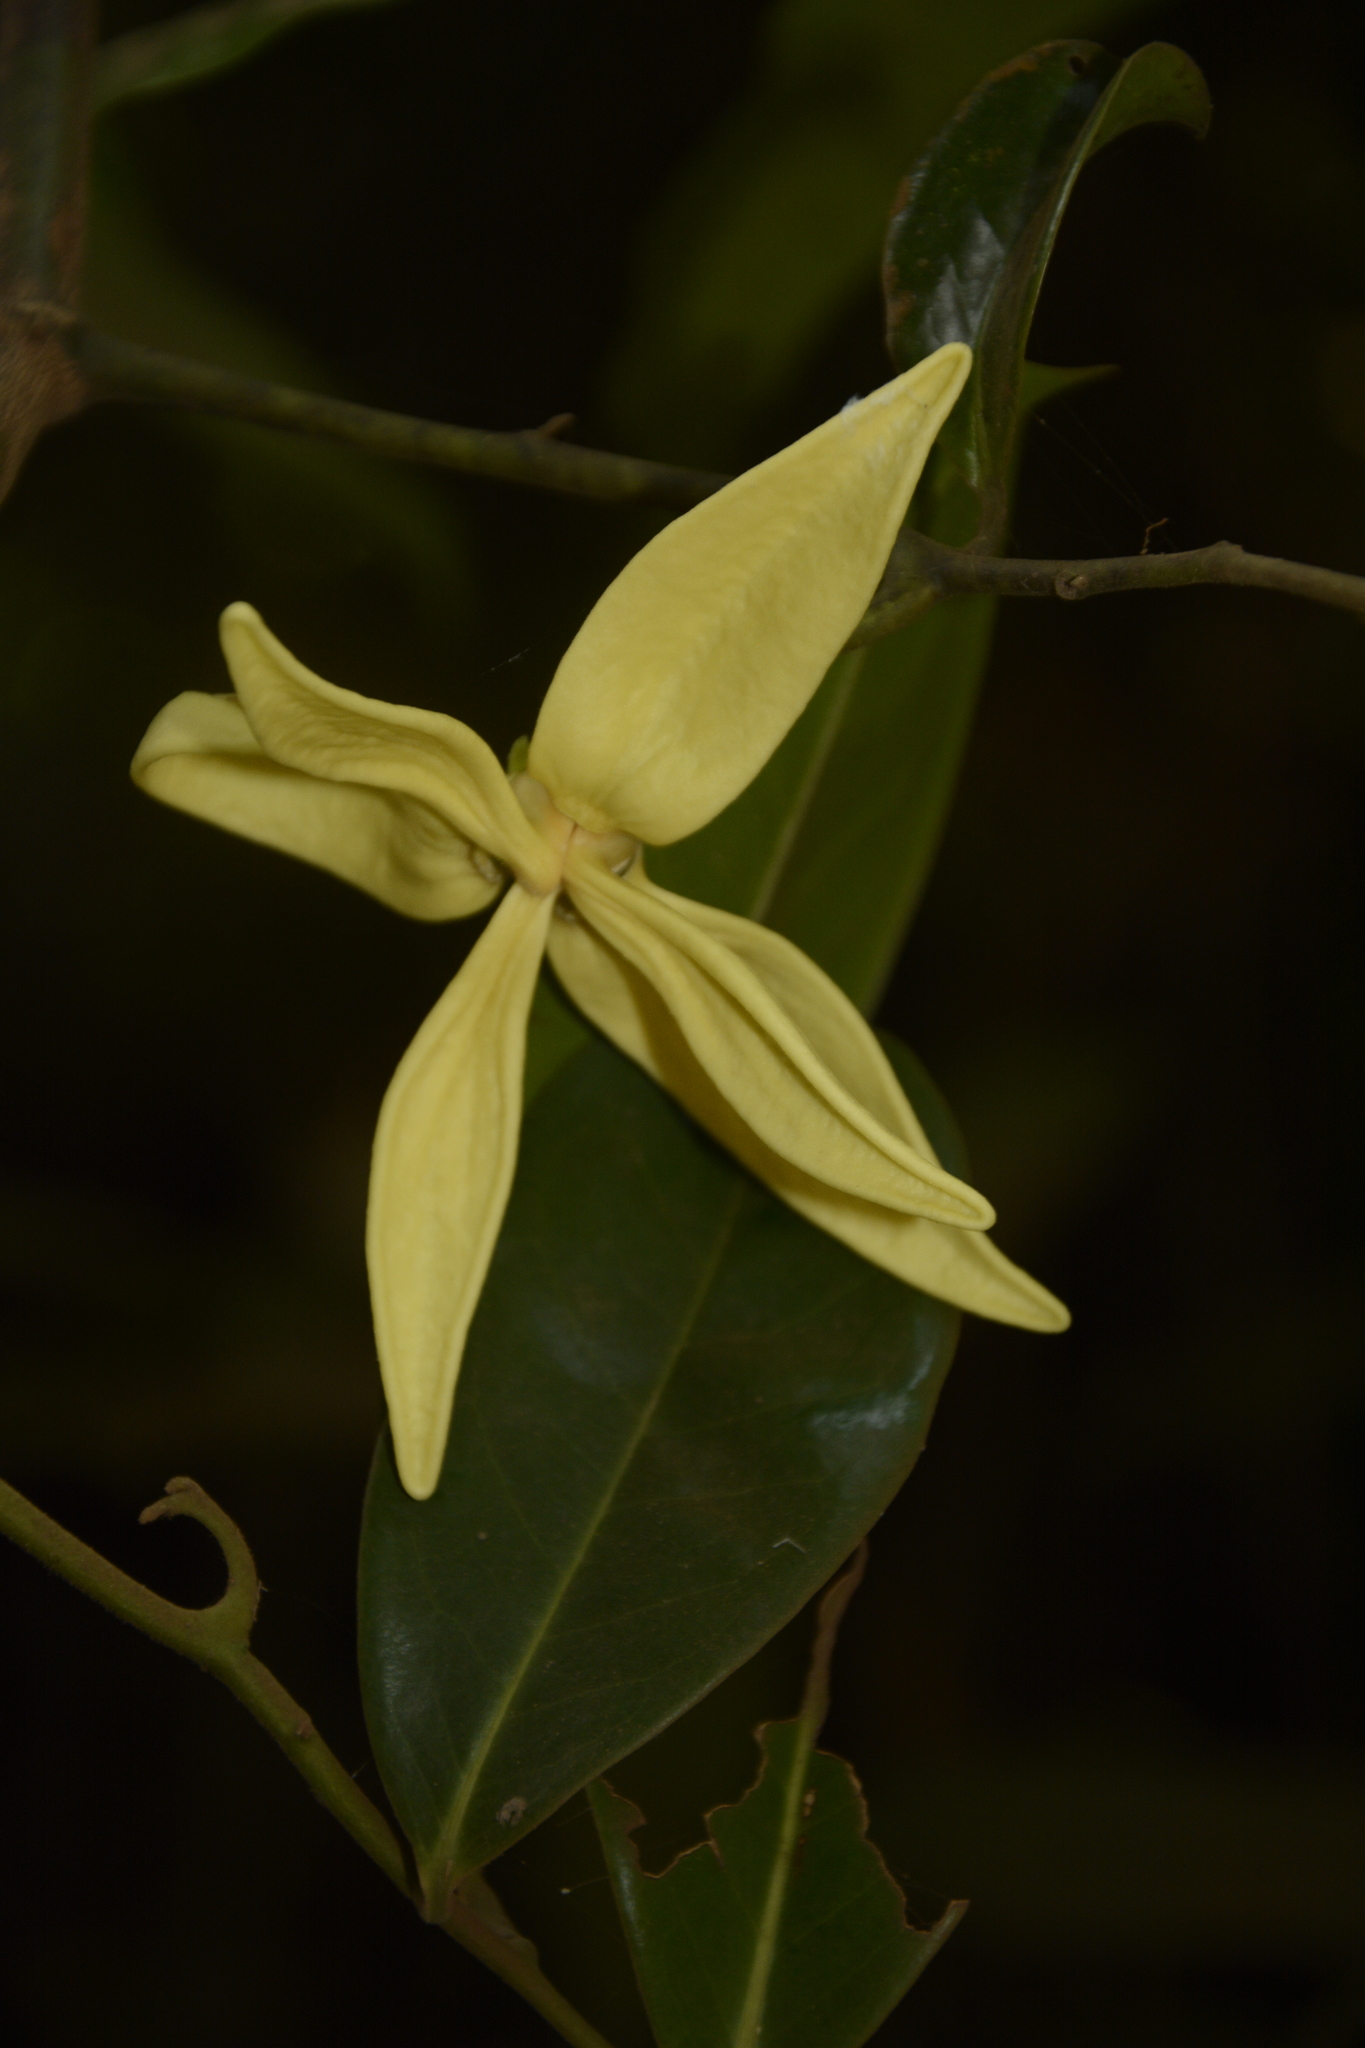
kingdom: Plantae
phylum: Tracheophyta
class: Magnoliopsida
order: Magnoliales
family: Annonaceae
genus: Artabotrys
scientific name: Artabotrys zeylanicus
